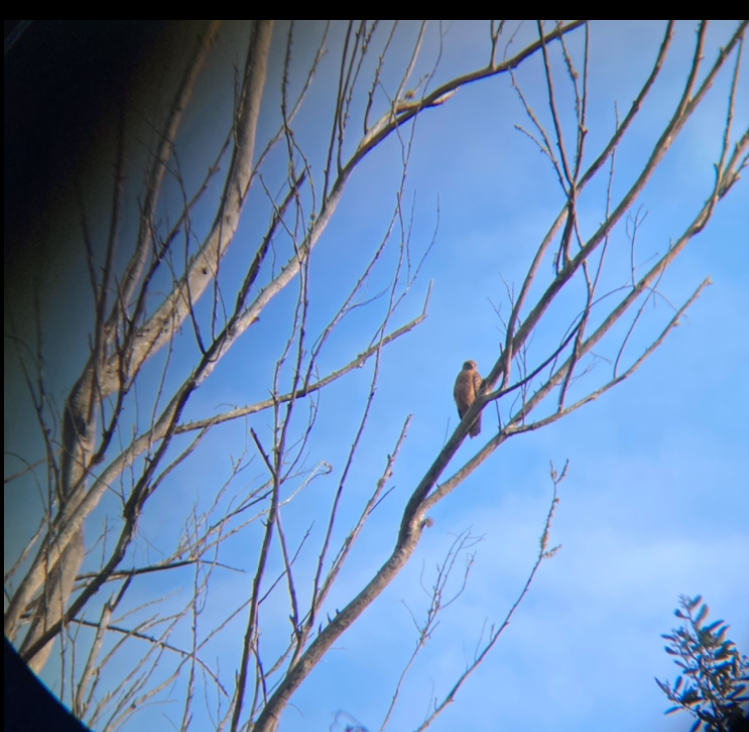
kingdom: Animalia
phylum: Chordata
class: Aves
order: Accipitriformes
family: Accipitridae
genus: Buteo
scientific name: Buteo buteo
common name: Common buzzard
